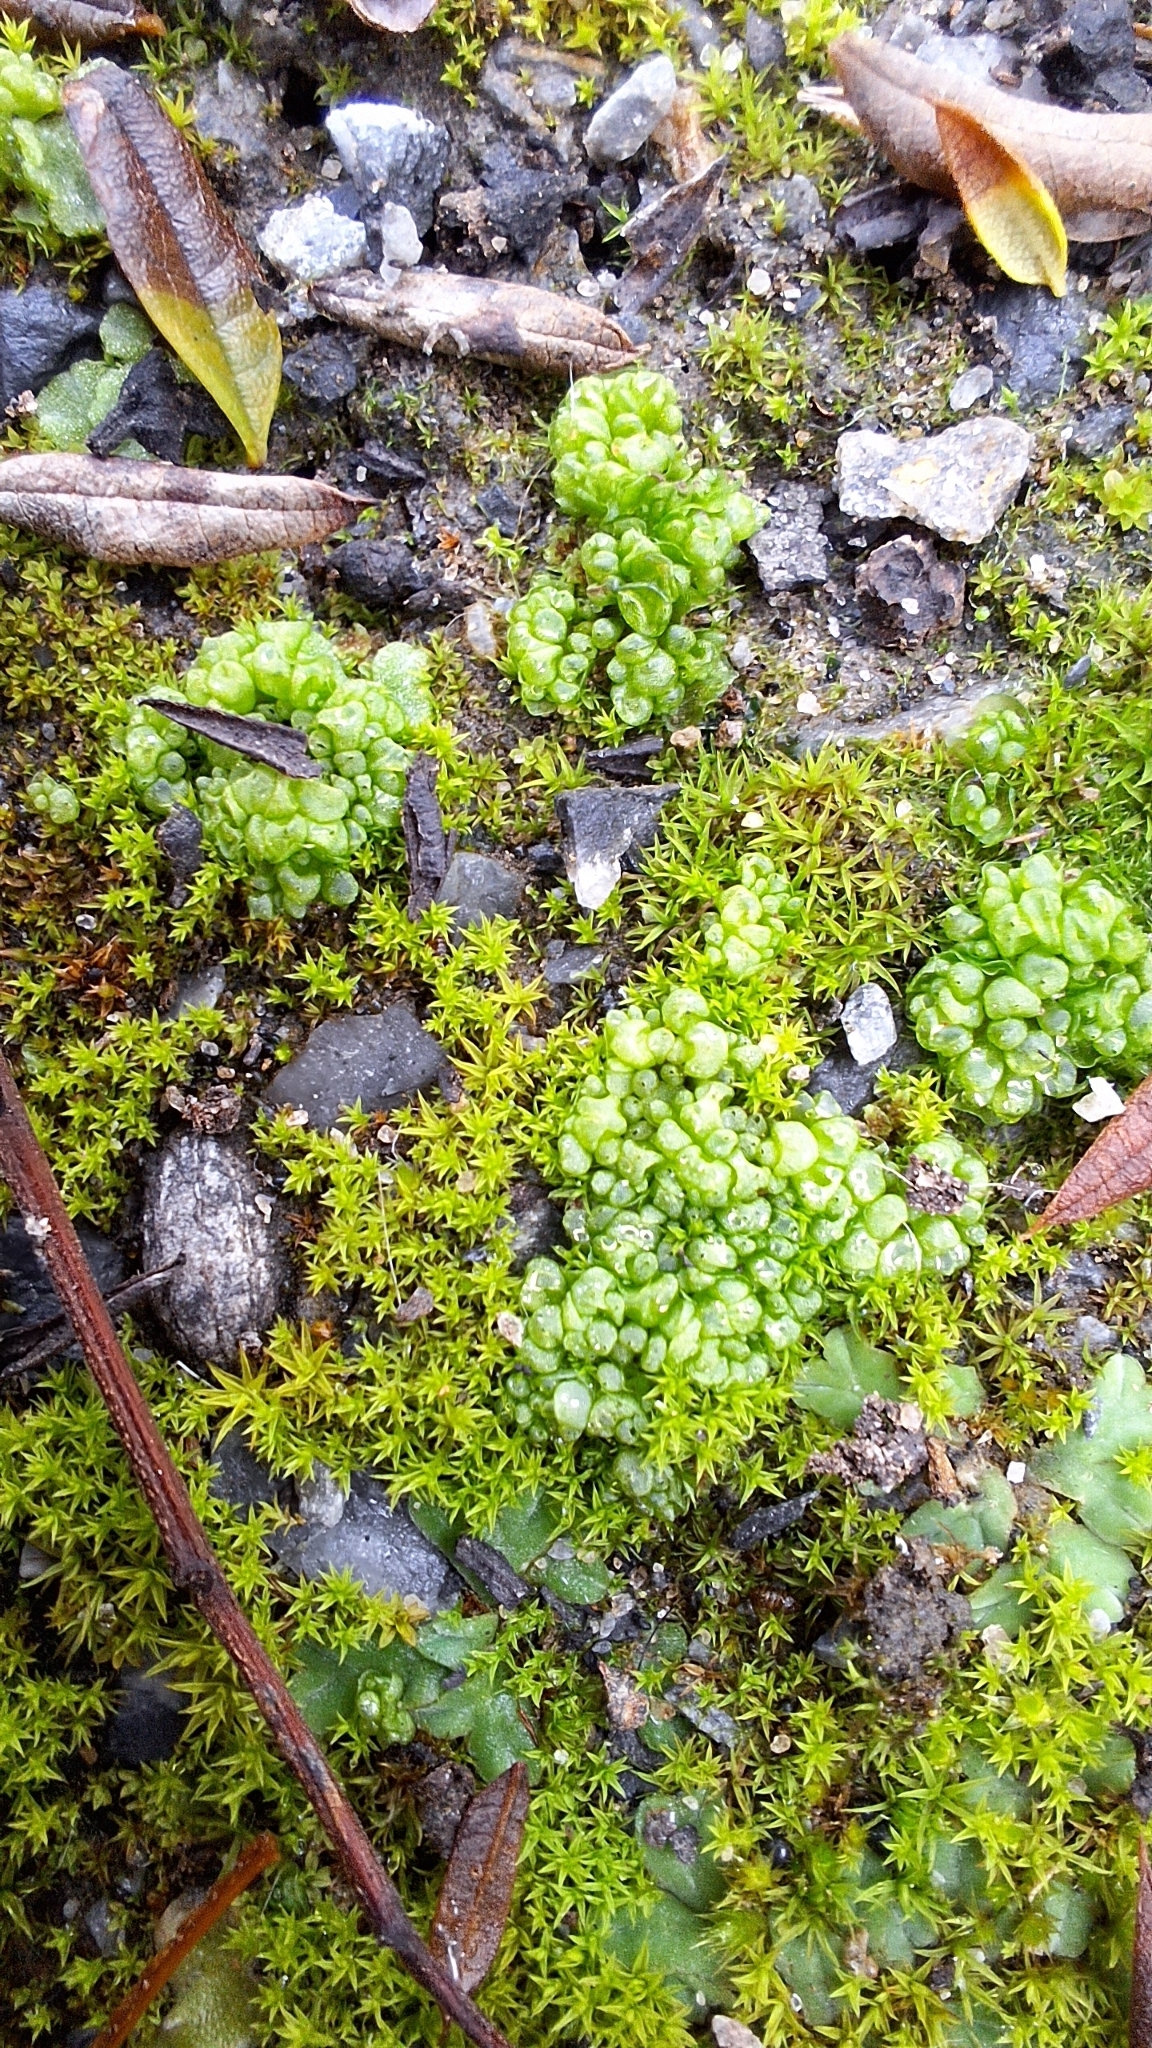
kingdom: Plantae
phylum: Marchantiophyta
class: Marchantiopsida
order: Sphaerocarpales
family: Sphaerocarpaceae
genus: Sphaerocarpos
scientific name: Sphaerocarpos texanus
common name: Texas balloonwort
